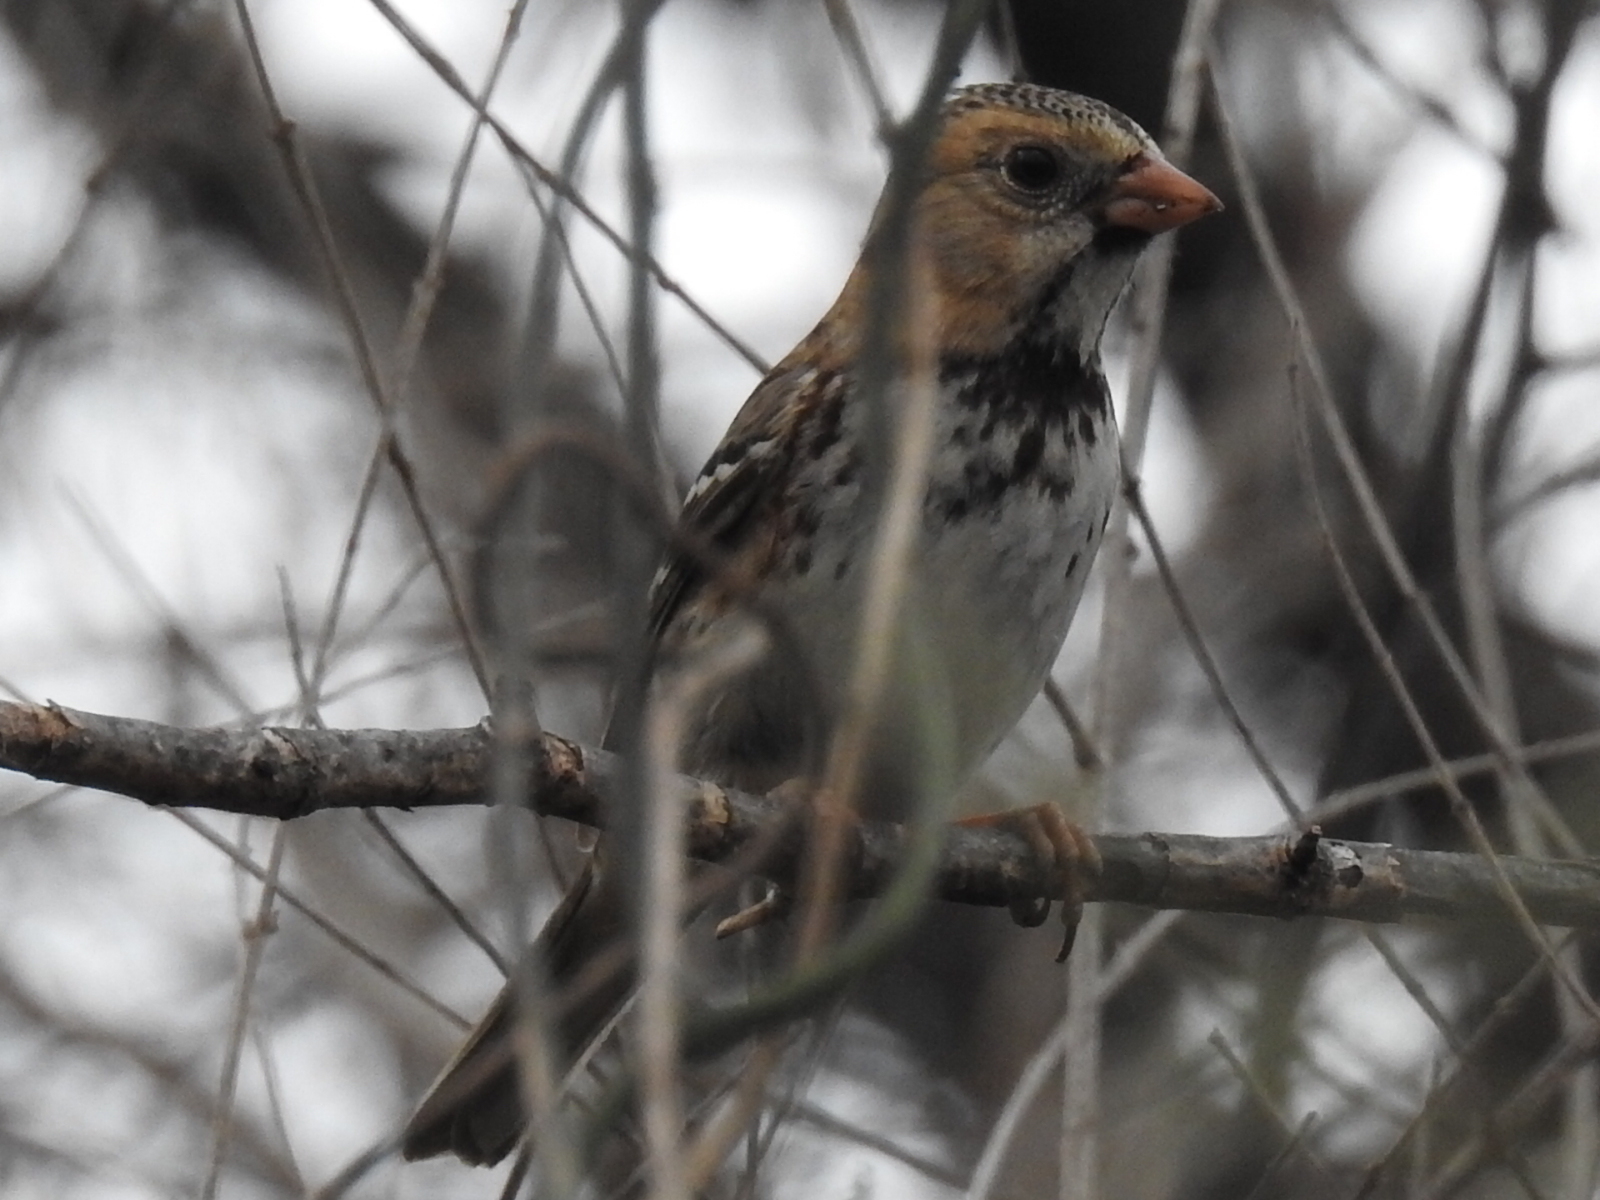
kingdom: Animalia
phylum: Chordata
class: Aves
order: Passeriformes
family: Passerellidae
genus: Zonotrichia
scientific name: Zonotrichia querula
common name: Harris's sparrow
